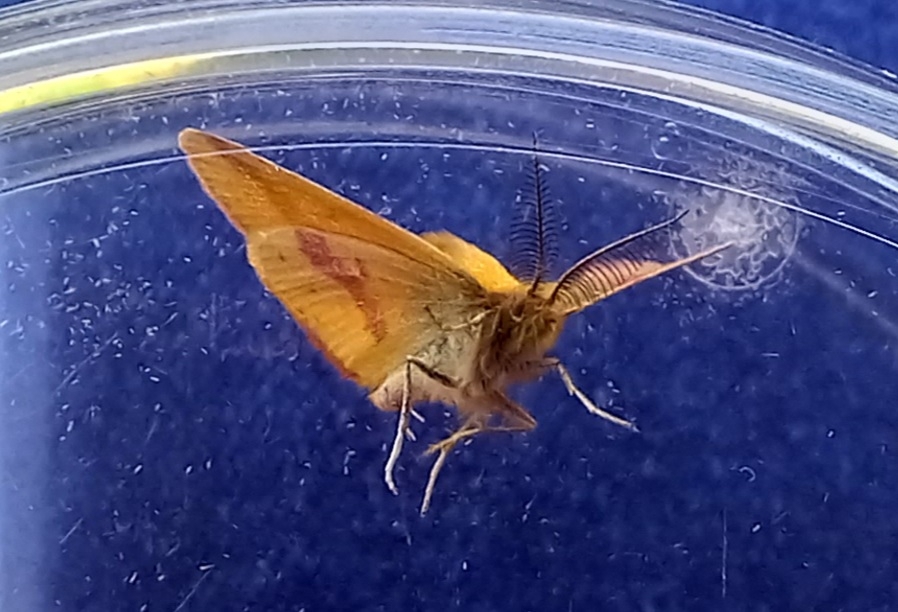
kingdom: Animalia
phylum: Arthropoda
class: Insecta
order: Lepidoptera
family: Geometridae
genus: Lythria
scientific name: Lythria cruentaria
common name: Purple-barred yellow
